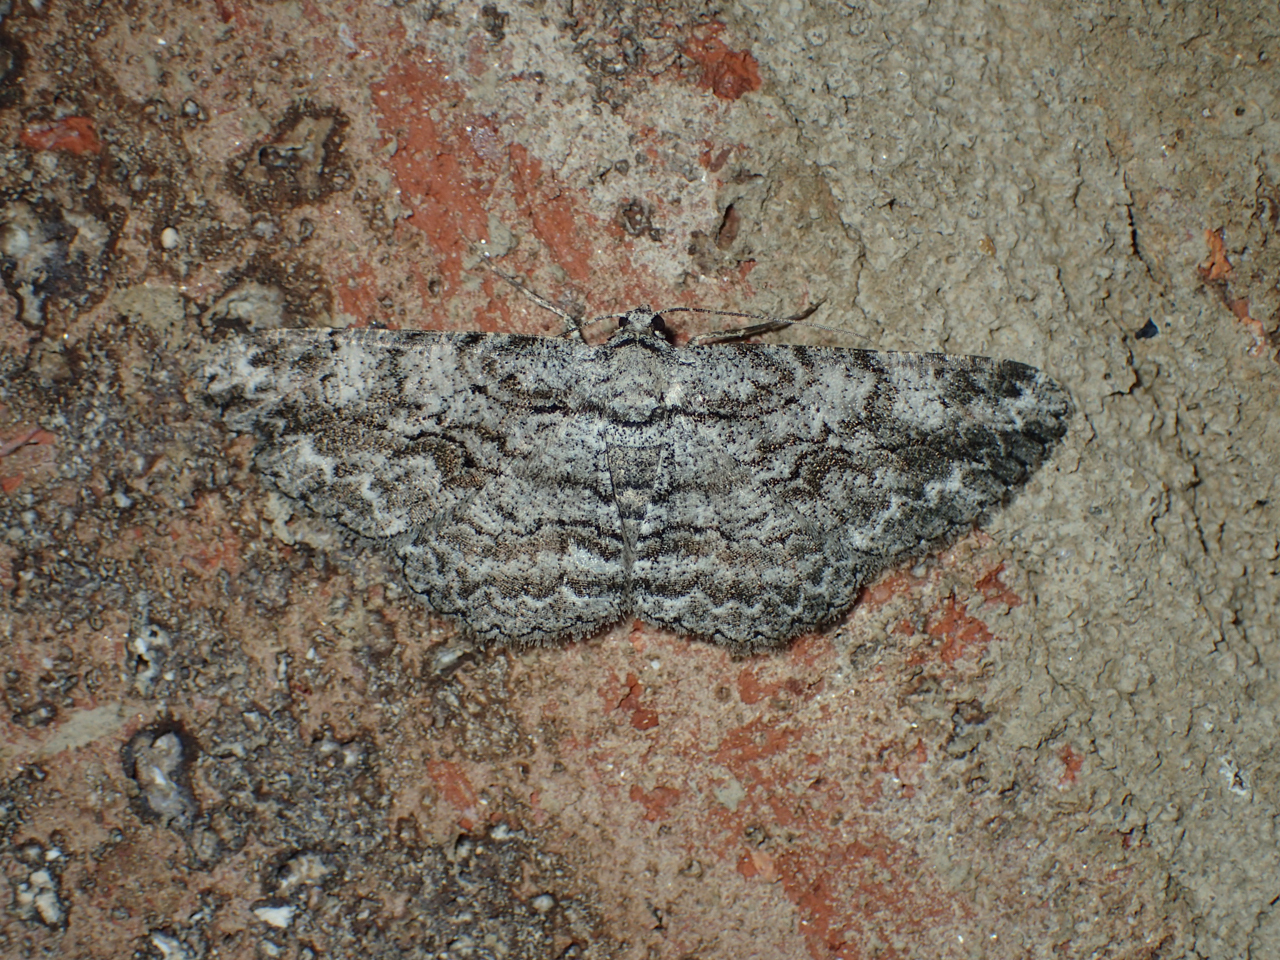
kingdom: Animalia
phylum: Arthropoda
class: Insecta
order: Lepidoptera
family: Geometridae
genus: Anavitrinella
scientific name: Anavitrinella pampinaria
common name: Common gray
